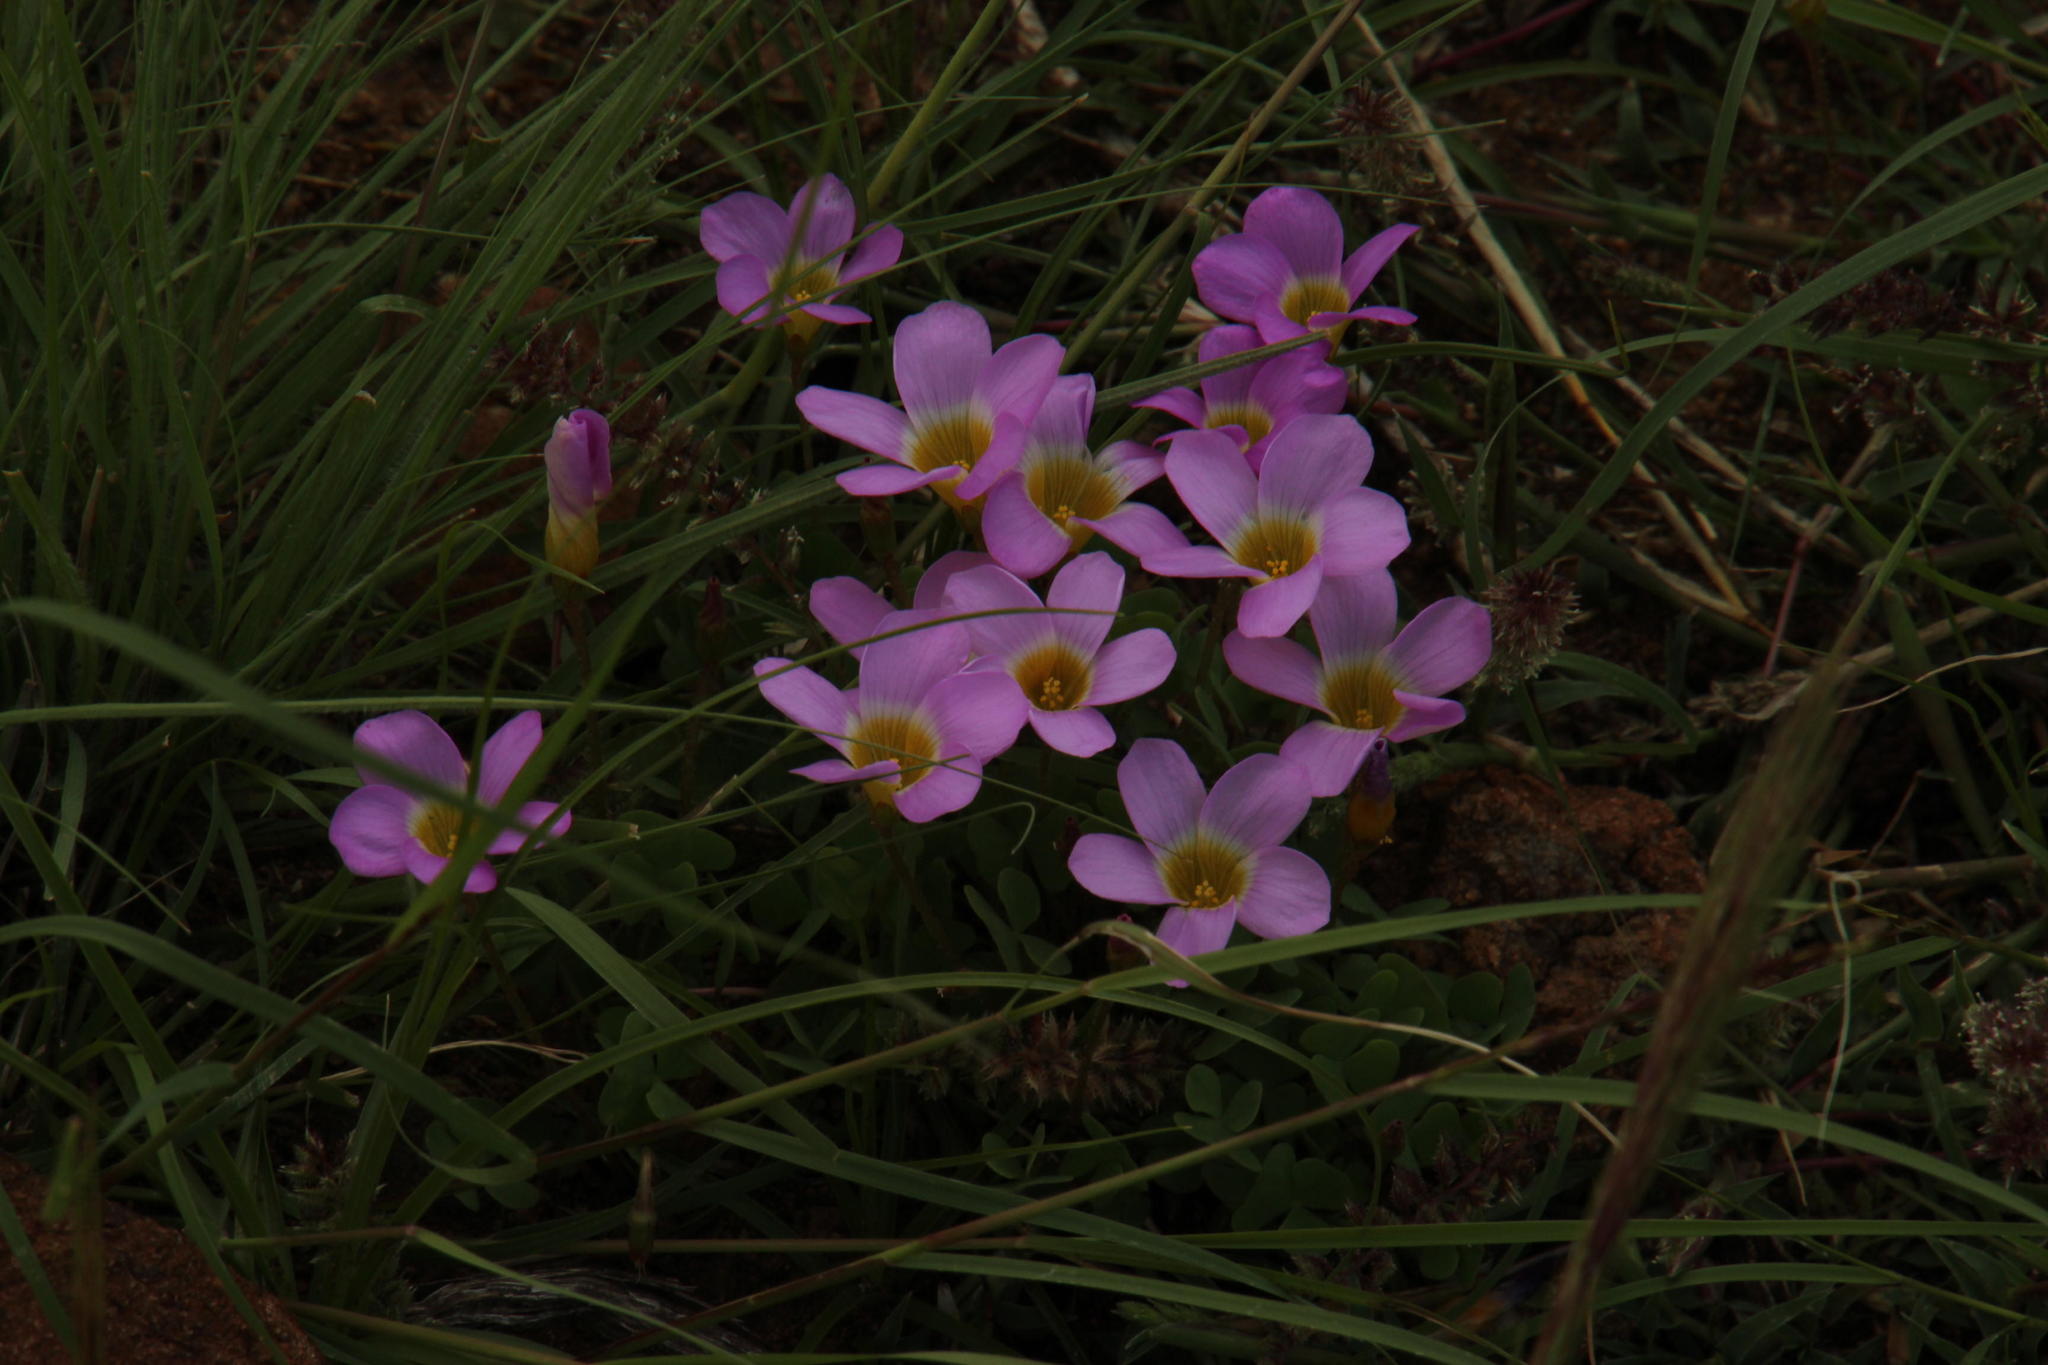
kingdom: Plantae
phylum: Tracheophyta
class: Magnoliopsida
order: Oxalidales
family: Oxalidaceae
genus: Oxalis
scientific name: Oxalis obliquifolia
